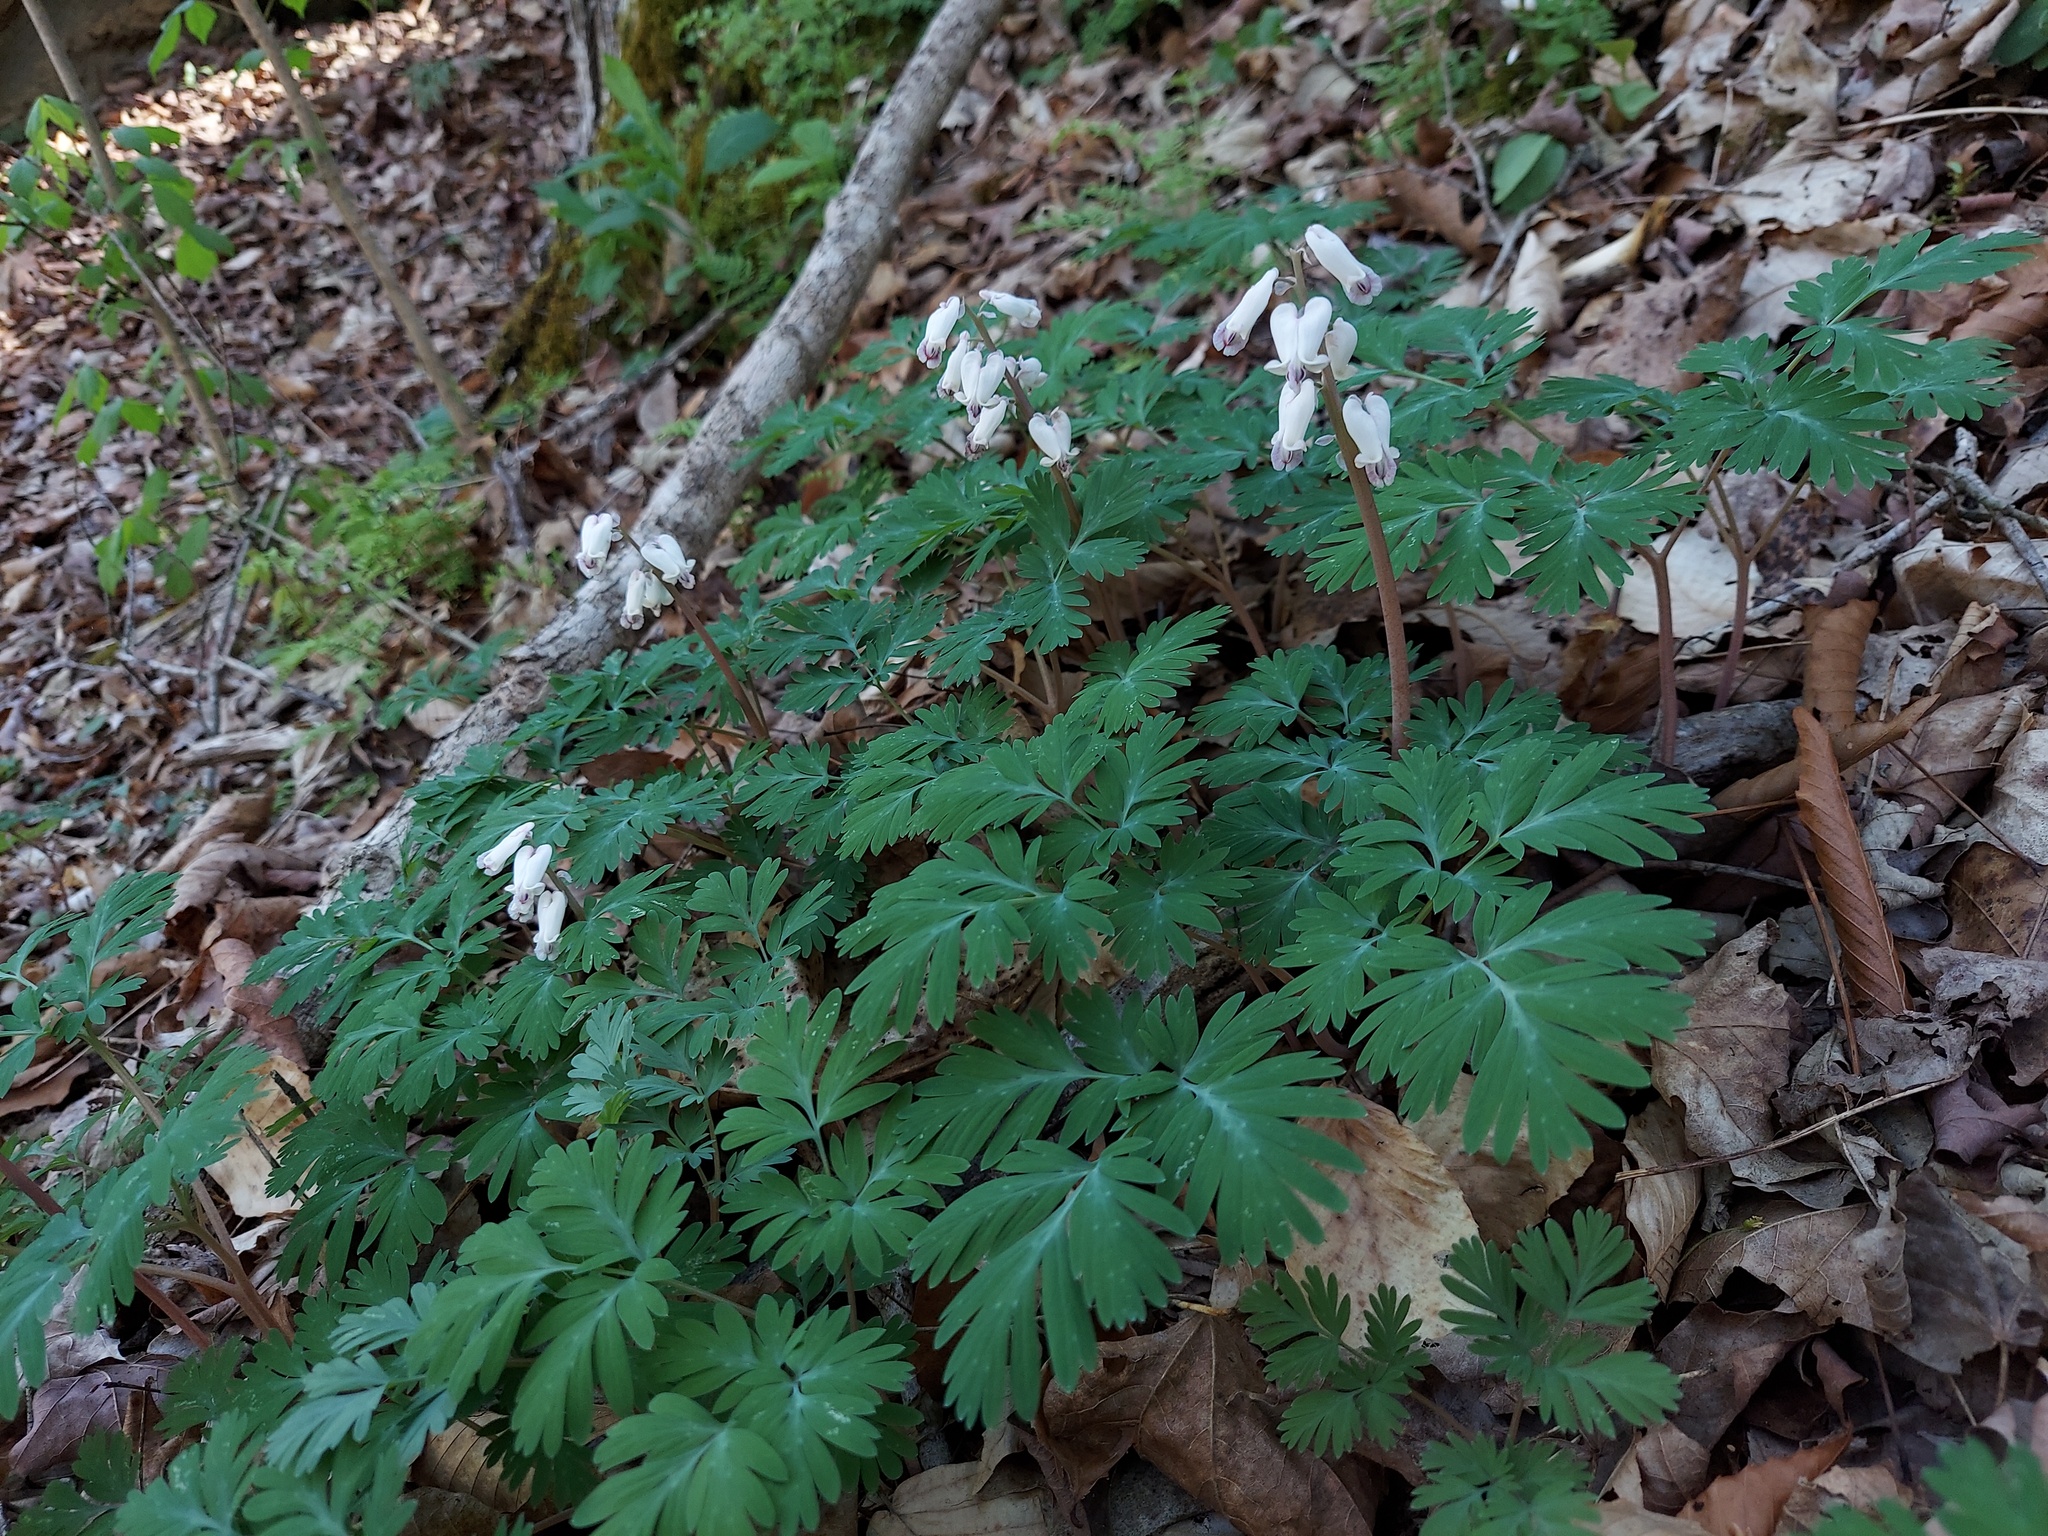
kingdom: Plantae
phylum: Tracheophyta
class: Magnoliopsida
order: Ranunculales
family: Papaveraceae
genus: Dicentra
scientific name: Dicentra canadensis
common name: Squirrel-corn
